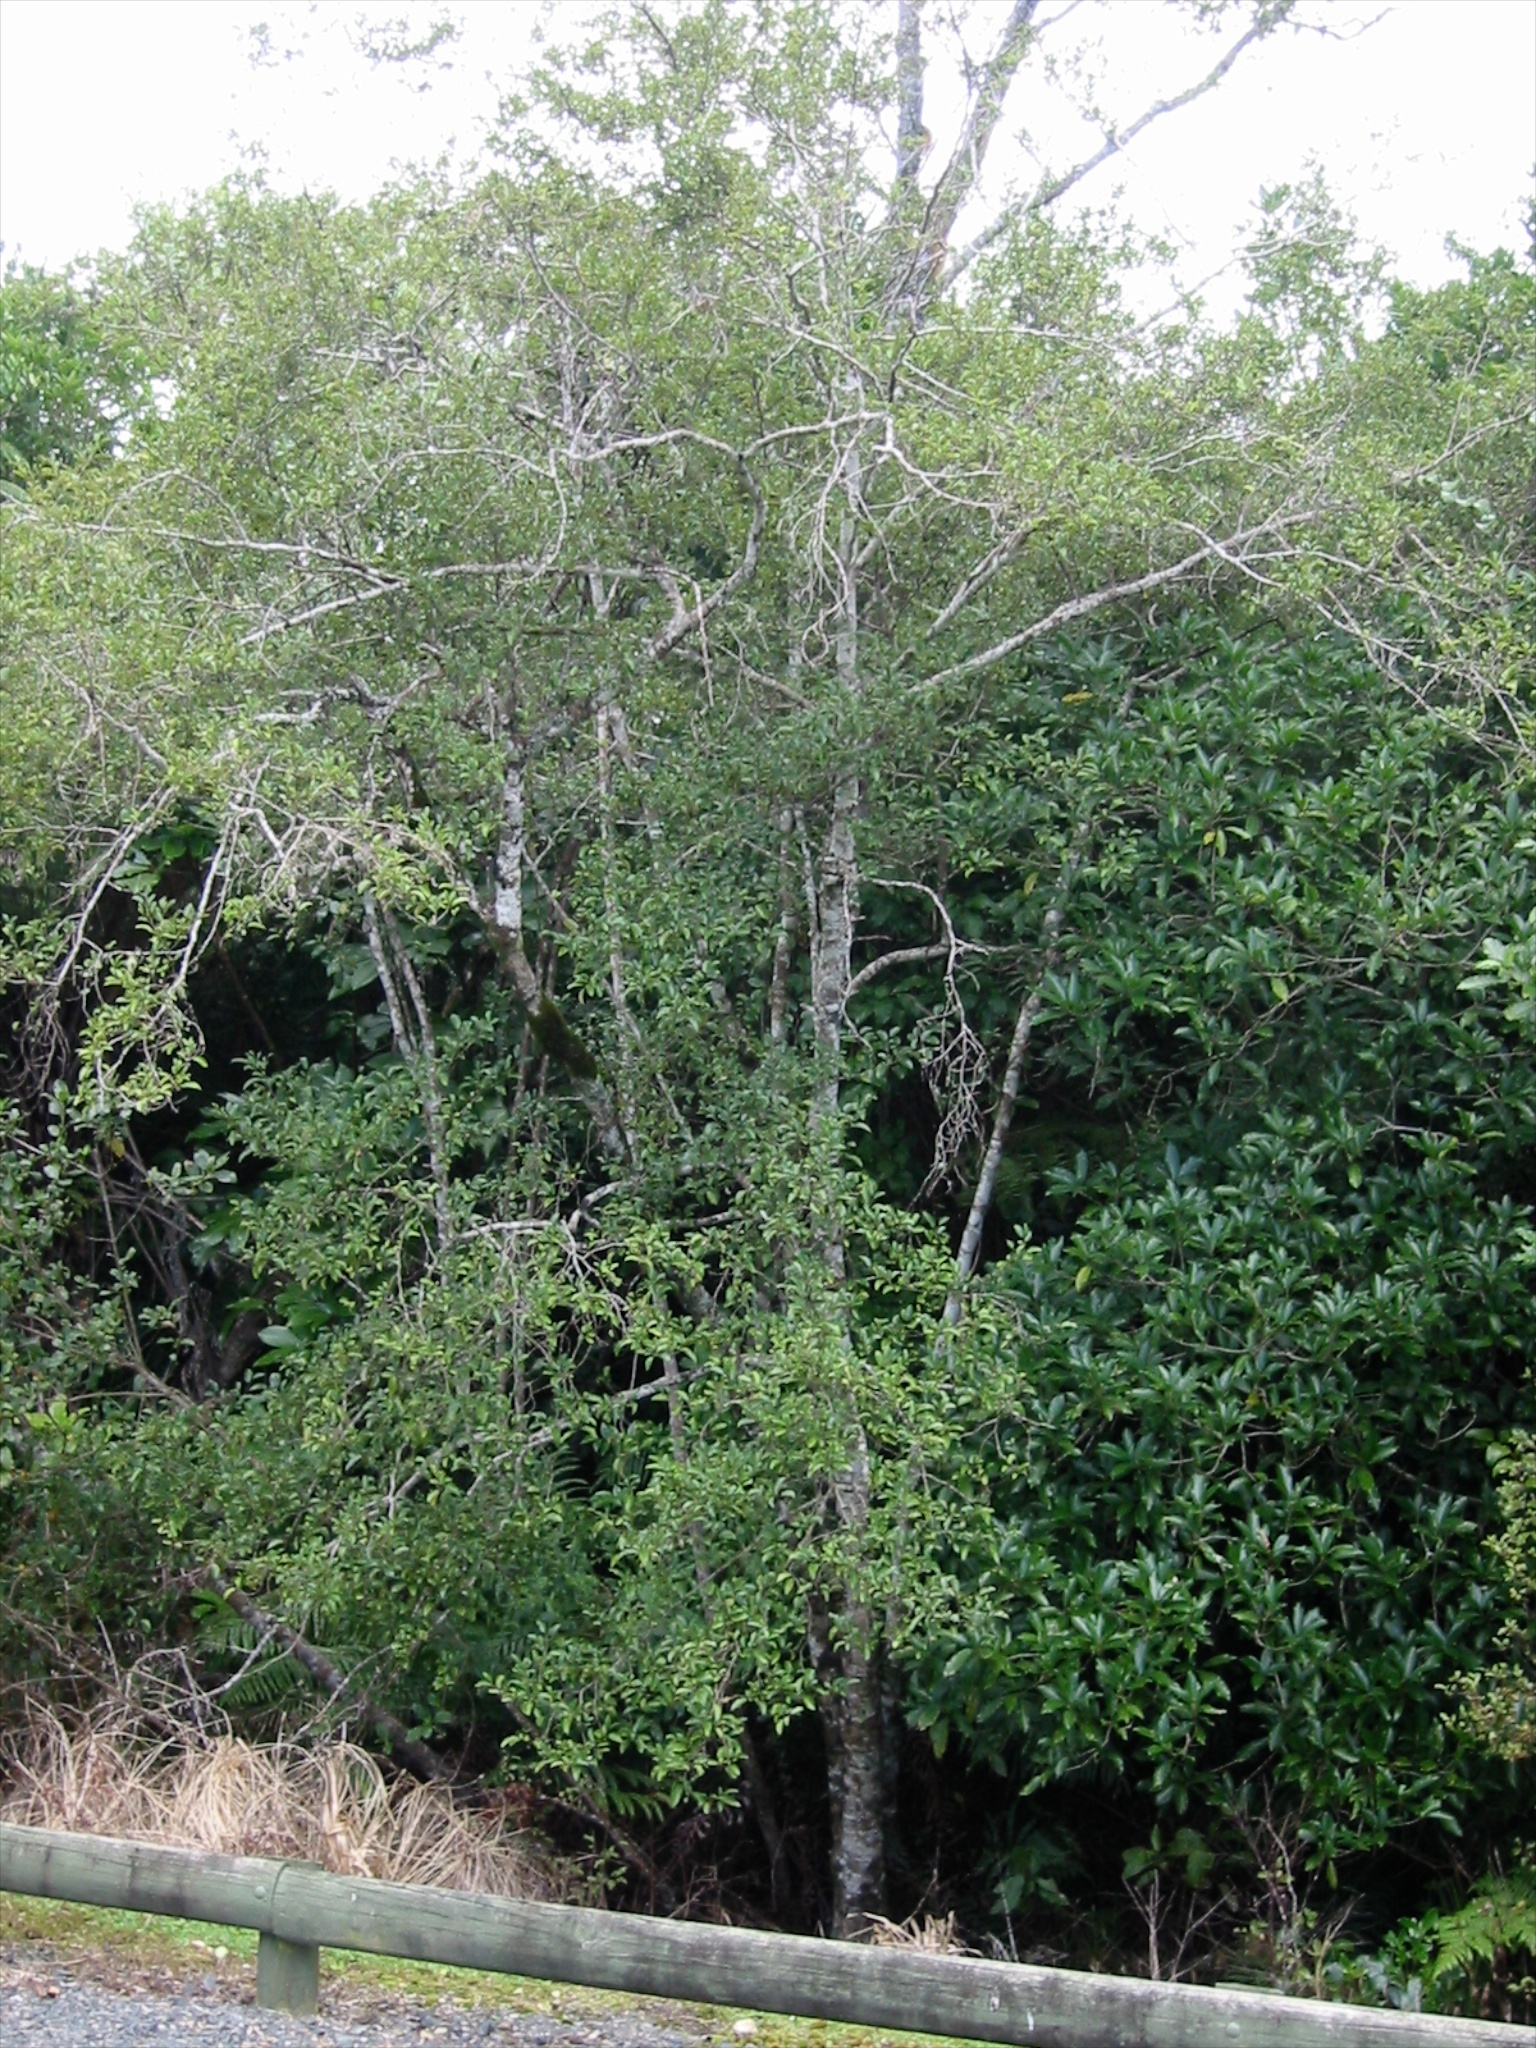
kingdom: Plantae
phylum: Tracheophyta
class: Magnoliopsida
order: Asterales
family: Rousseaceae
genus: Carpodetus
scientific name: Carpodetus serratus
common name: White mapau
